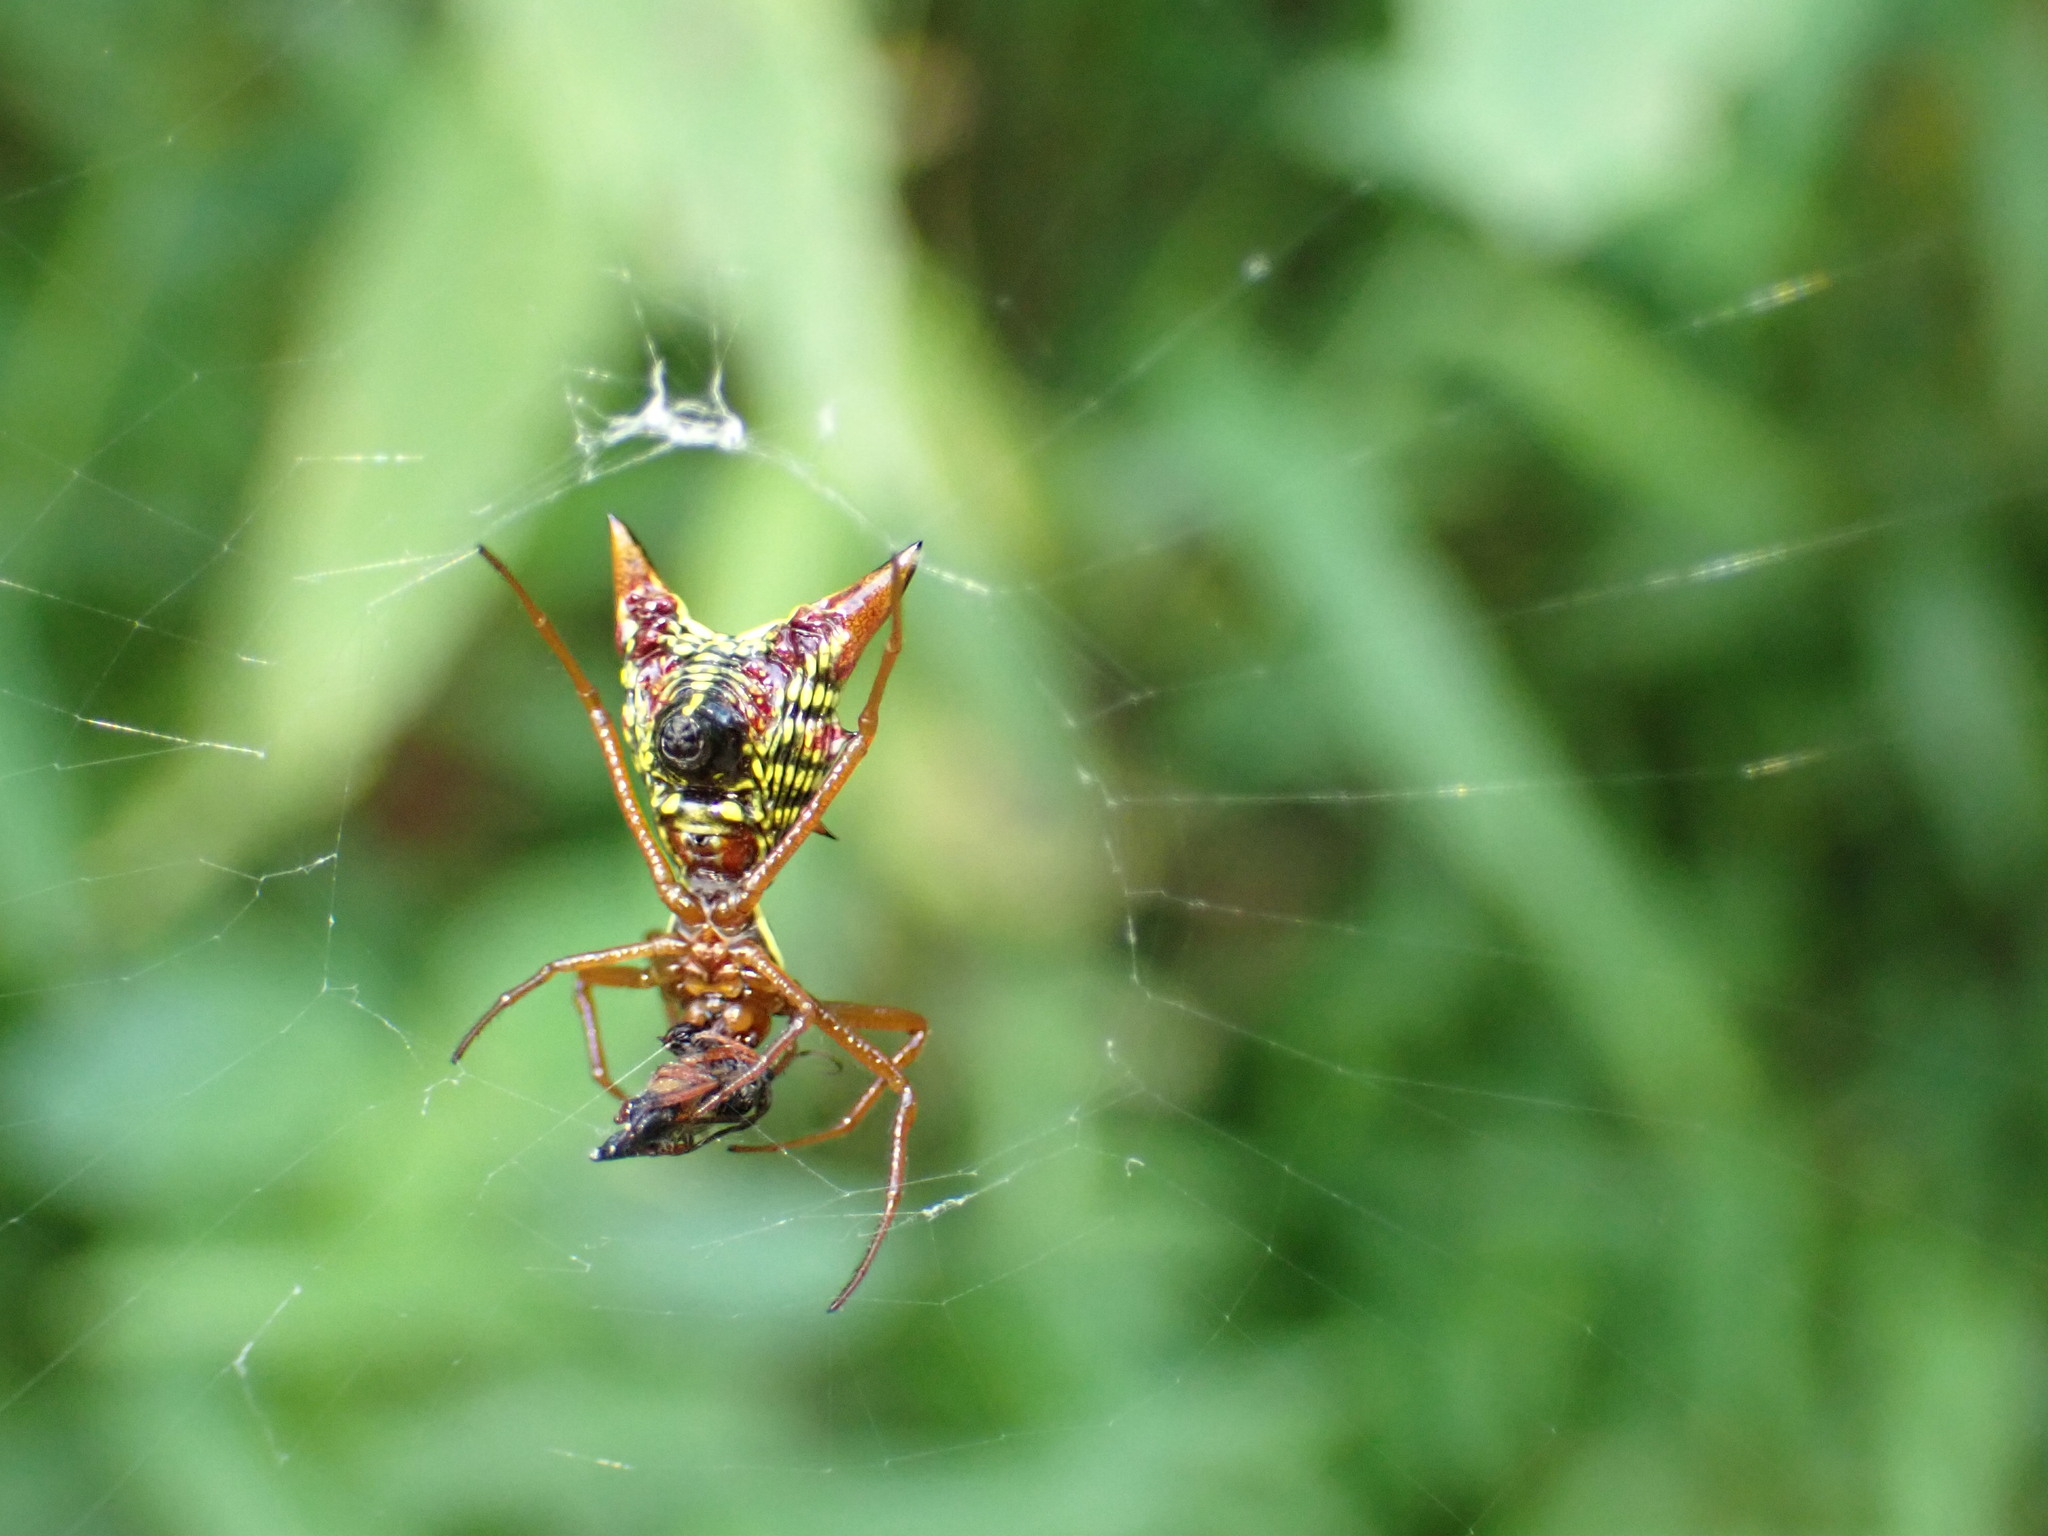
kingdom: Animalia
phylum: Arthropoda
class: Arachnida
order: Araneae
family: Araneidae
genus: Micrathena
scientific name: Micrathena sagittata
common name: Orb weavers
